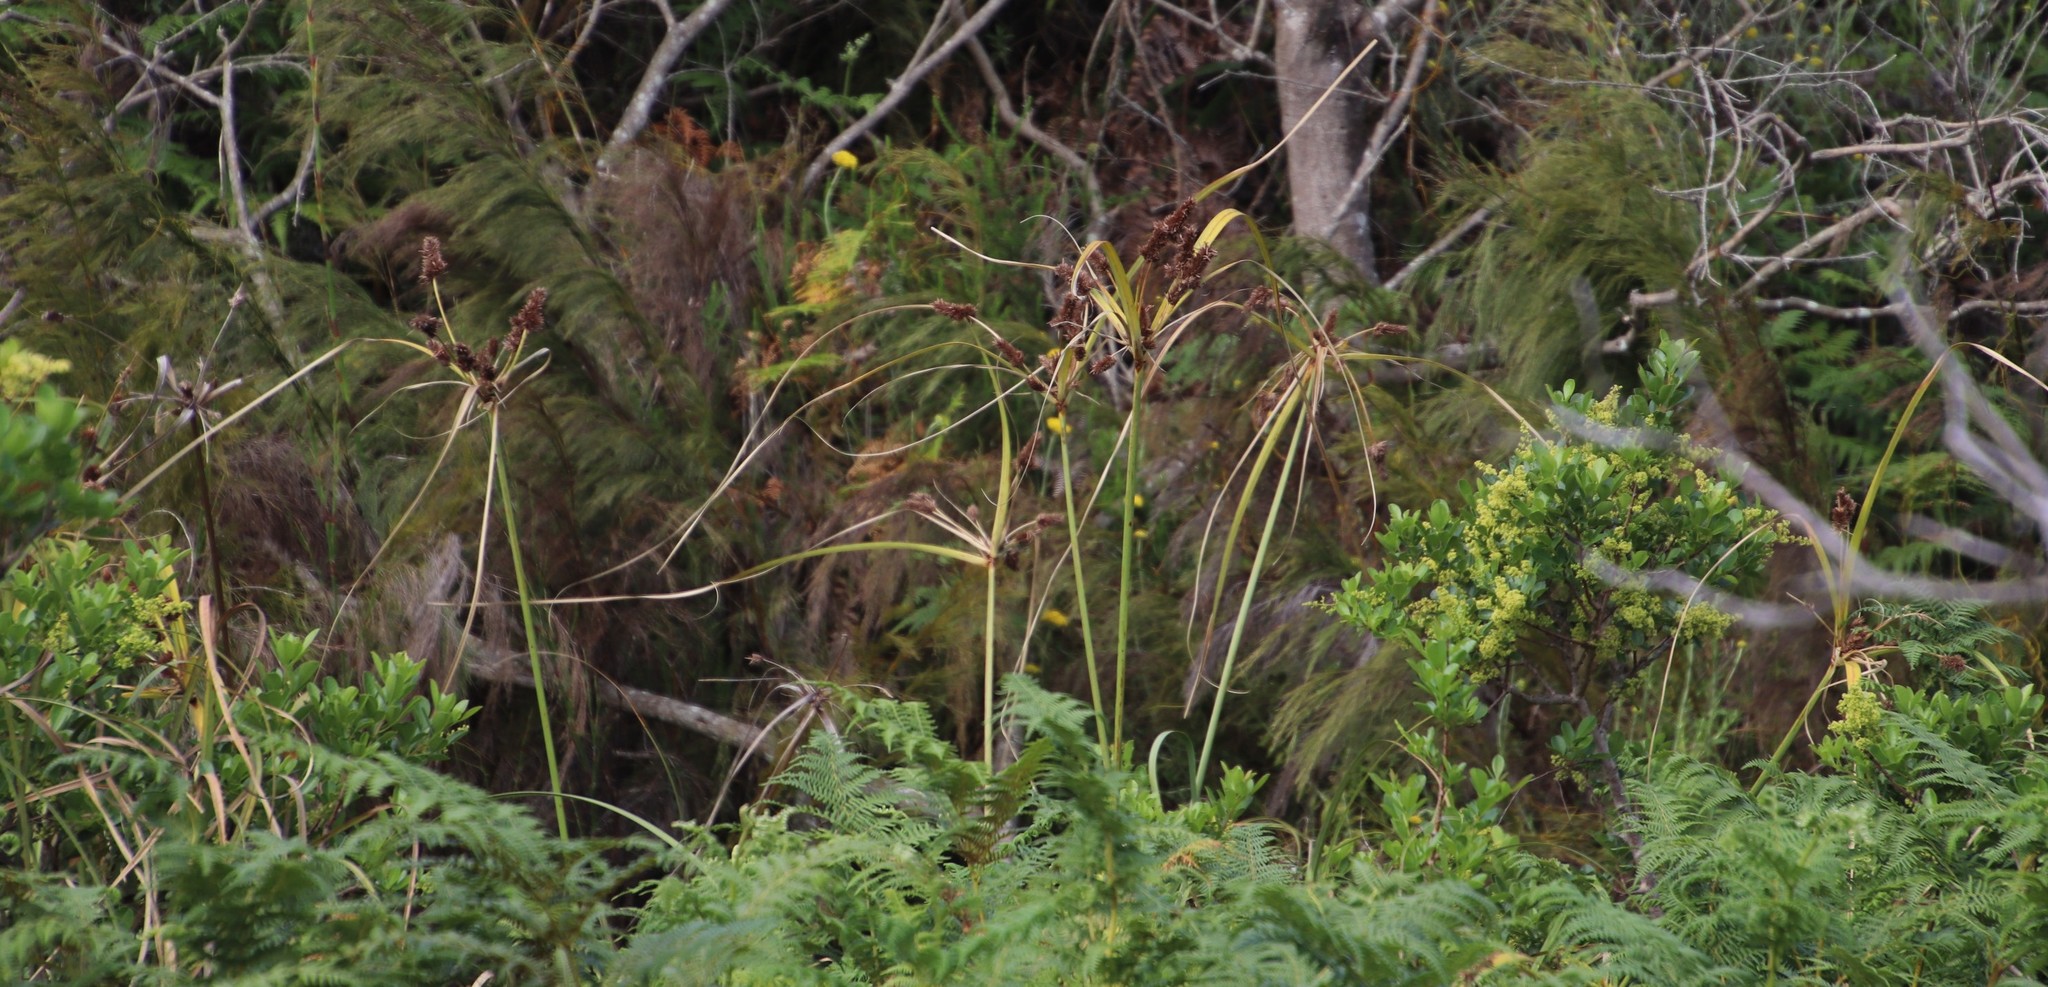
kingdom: Plantae
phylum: Tracheophyta
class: Liliopsida
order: Poales
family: Cyperaceae
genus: Cyperus
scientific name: Cyperus thunbergii
